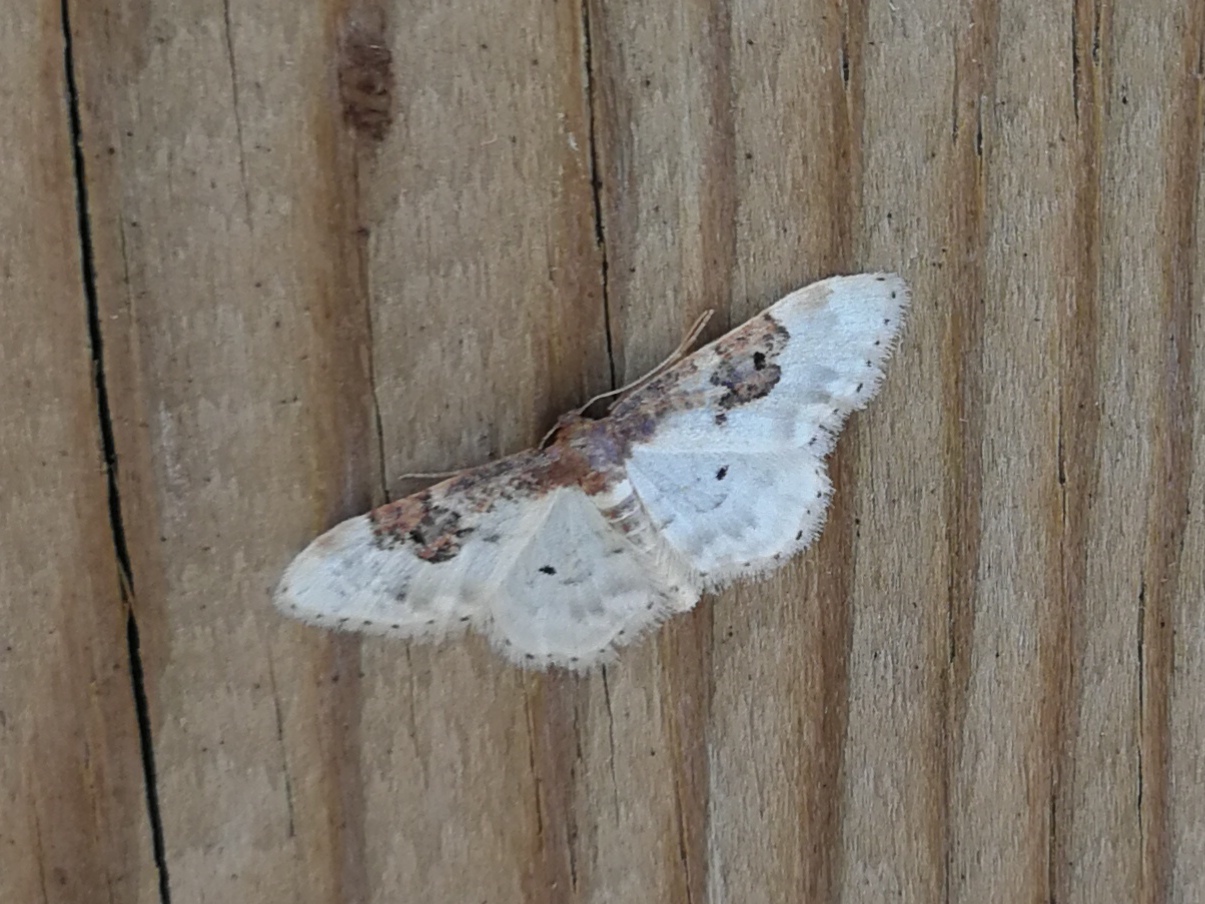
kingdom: Animalia
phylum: Arthropoda
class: Insecta
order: Lepidoptera
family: Geometridae
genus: Idaea
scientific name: Idaea rusticata
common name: Least carpet
